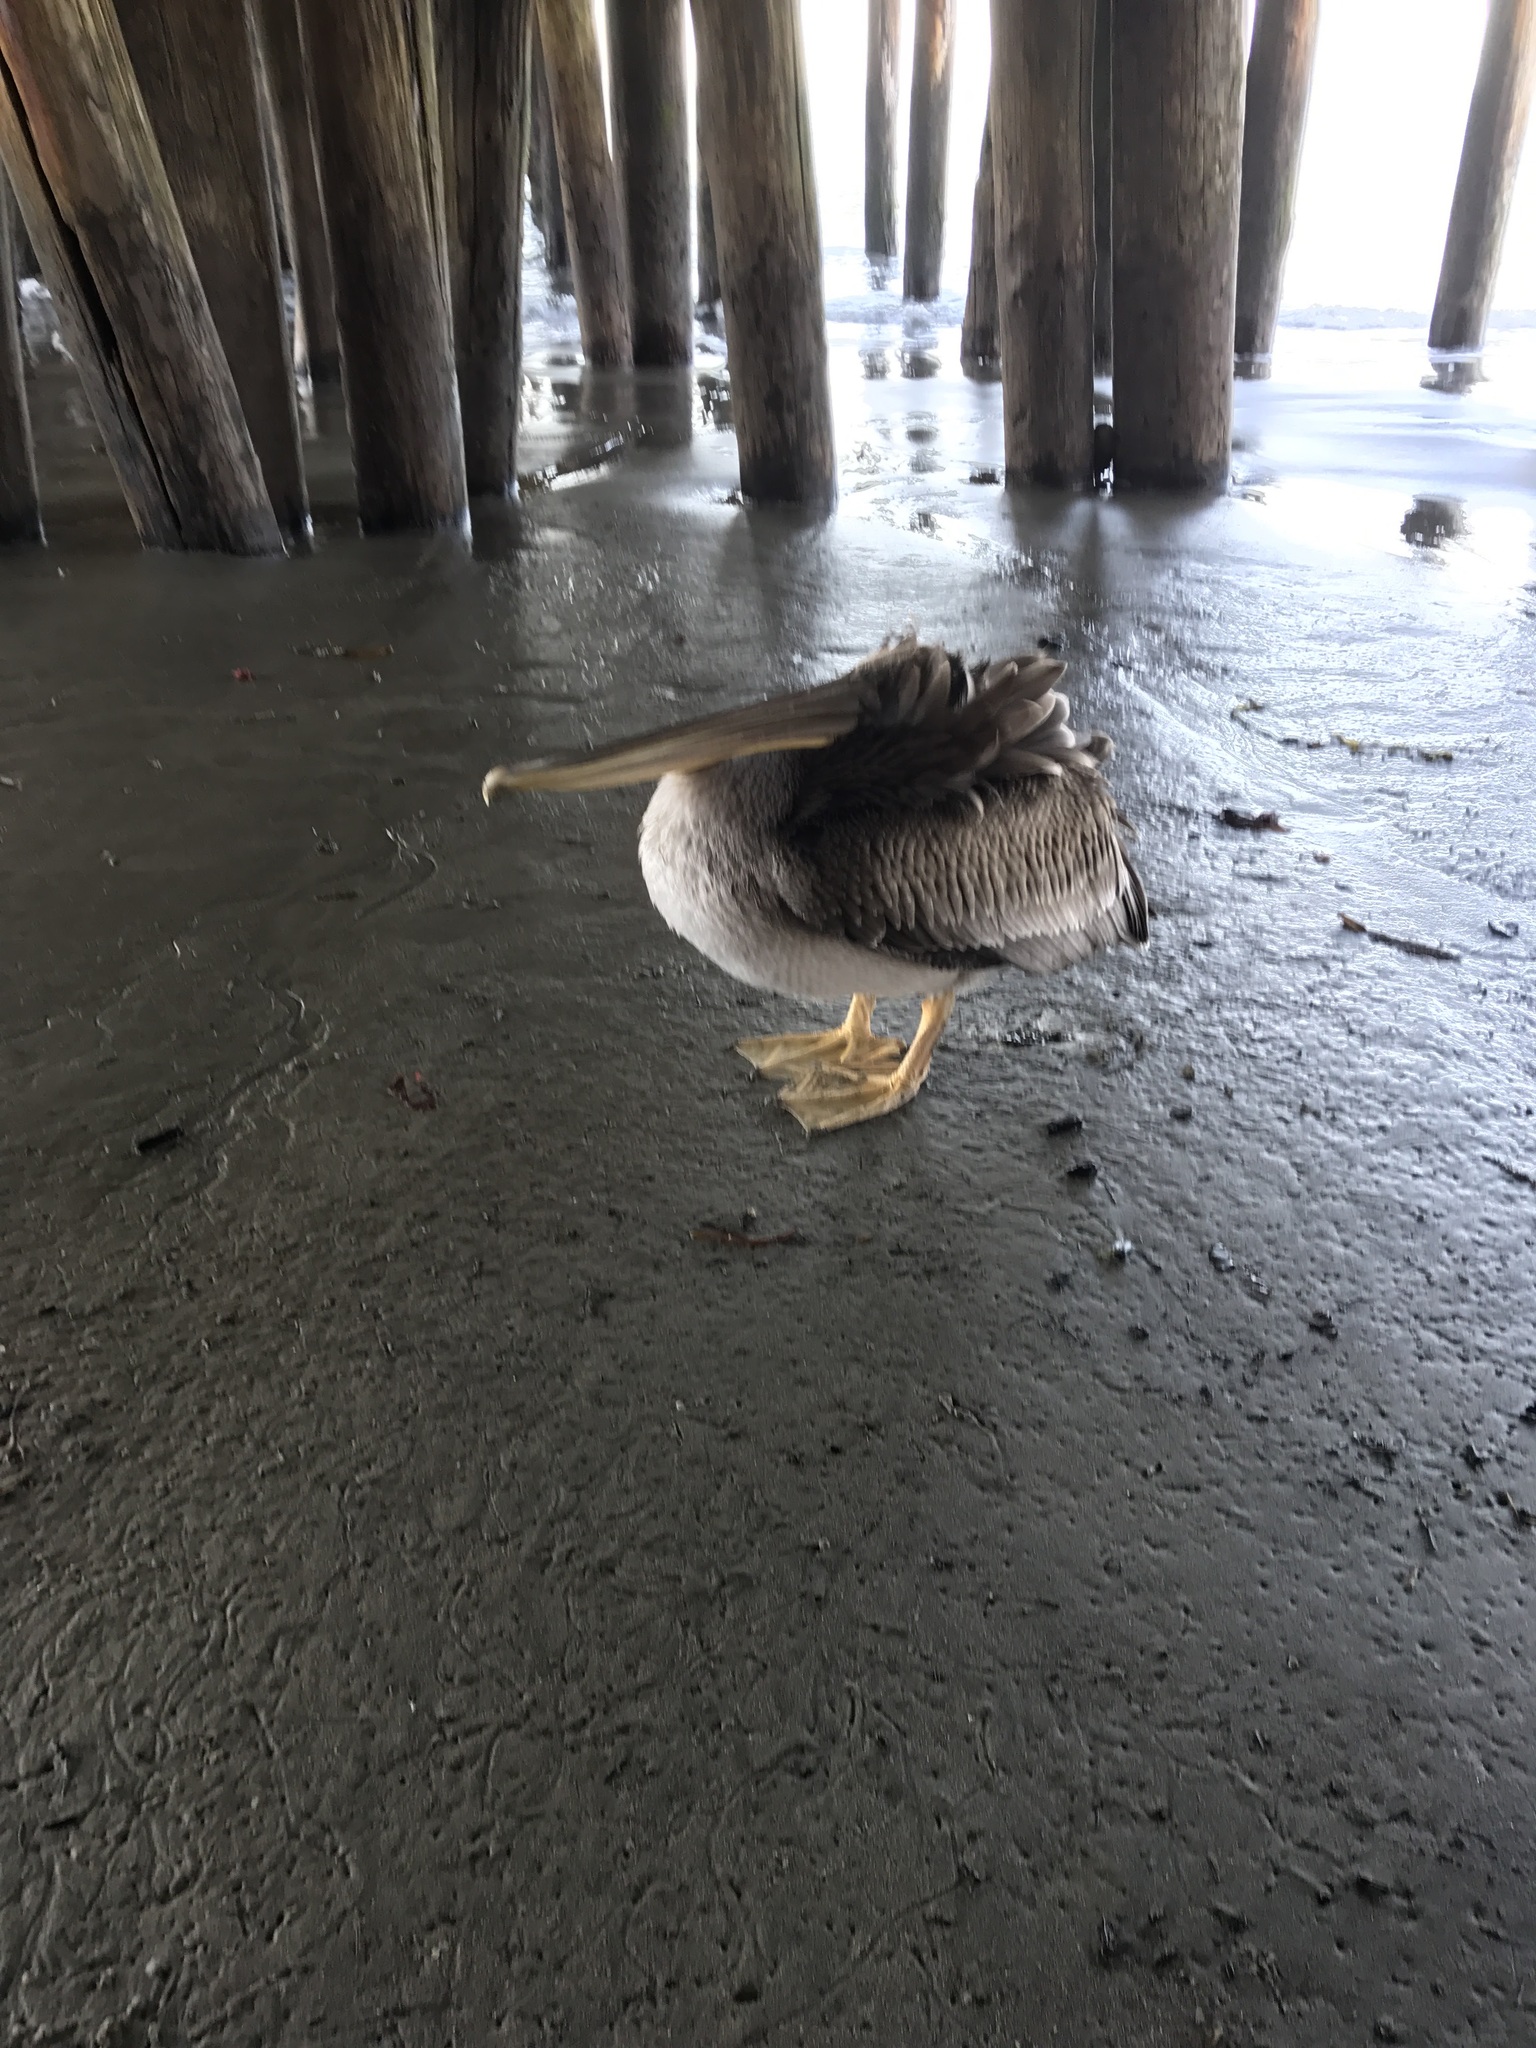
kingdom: Animalia
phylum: Chordata
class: Aves
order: Pelecaniformes
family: Pelecanidae
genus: Pelecanus
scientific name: Pelecanus occidentalis
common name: Brown pelican
